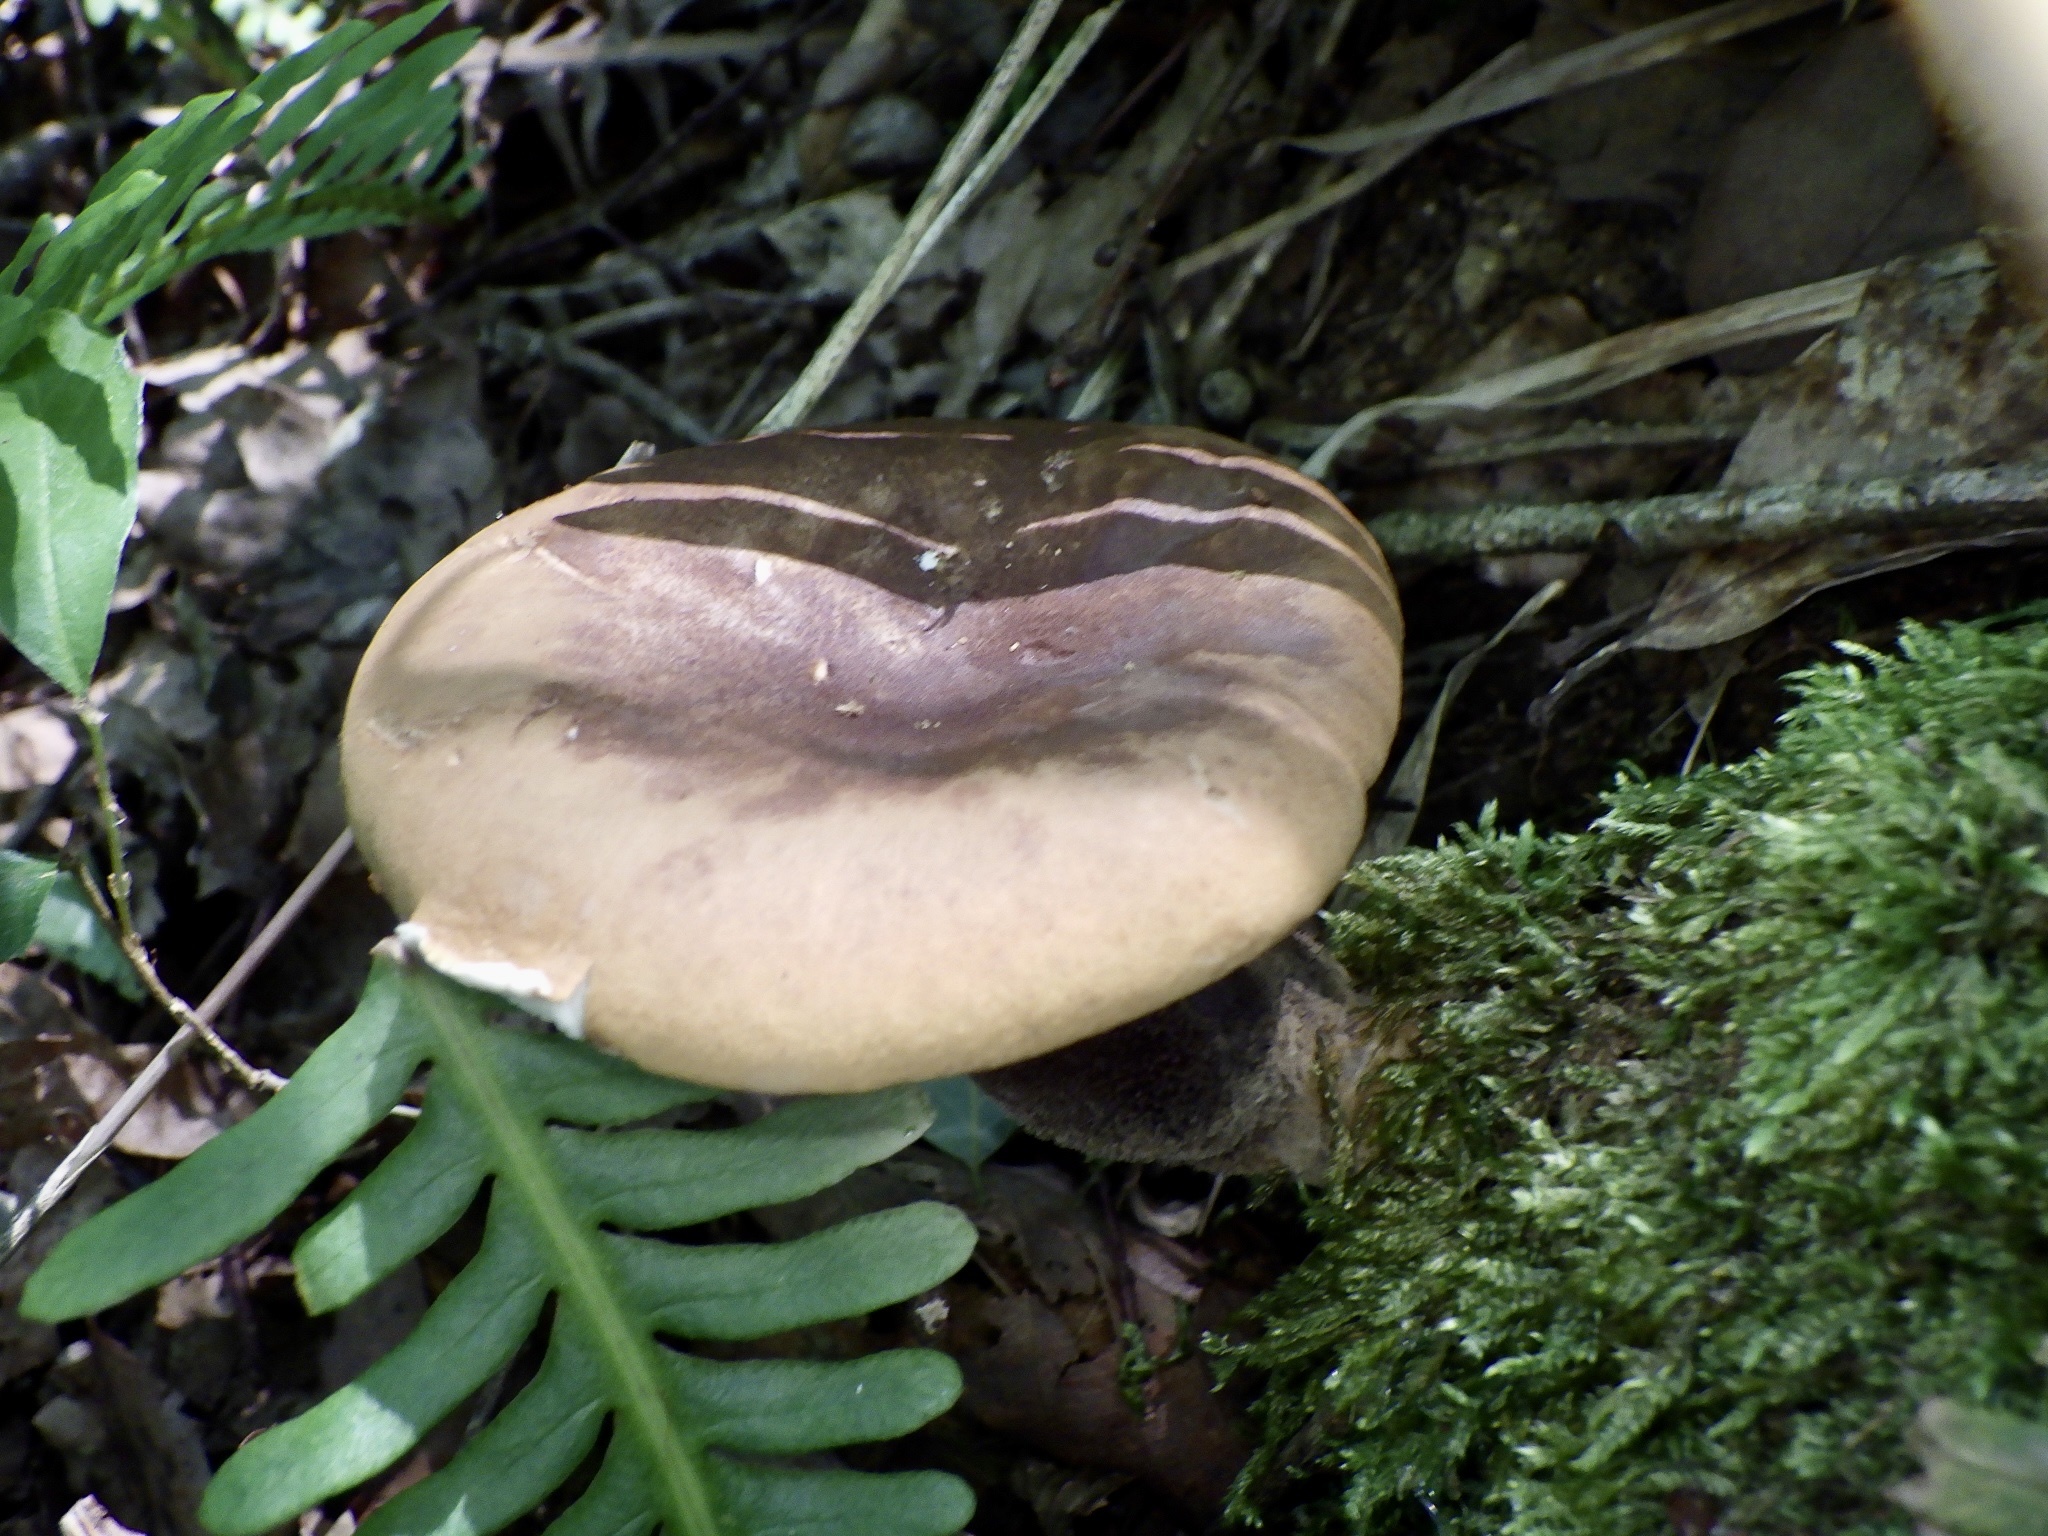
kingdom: Fungi
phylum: Basidiomycota
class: Agaricomycetes
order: Boletales
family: Tapinellaceae
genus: Tapinella
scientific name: Tapinella atrotomentosa
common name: Velvet rollrim
